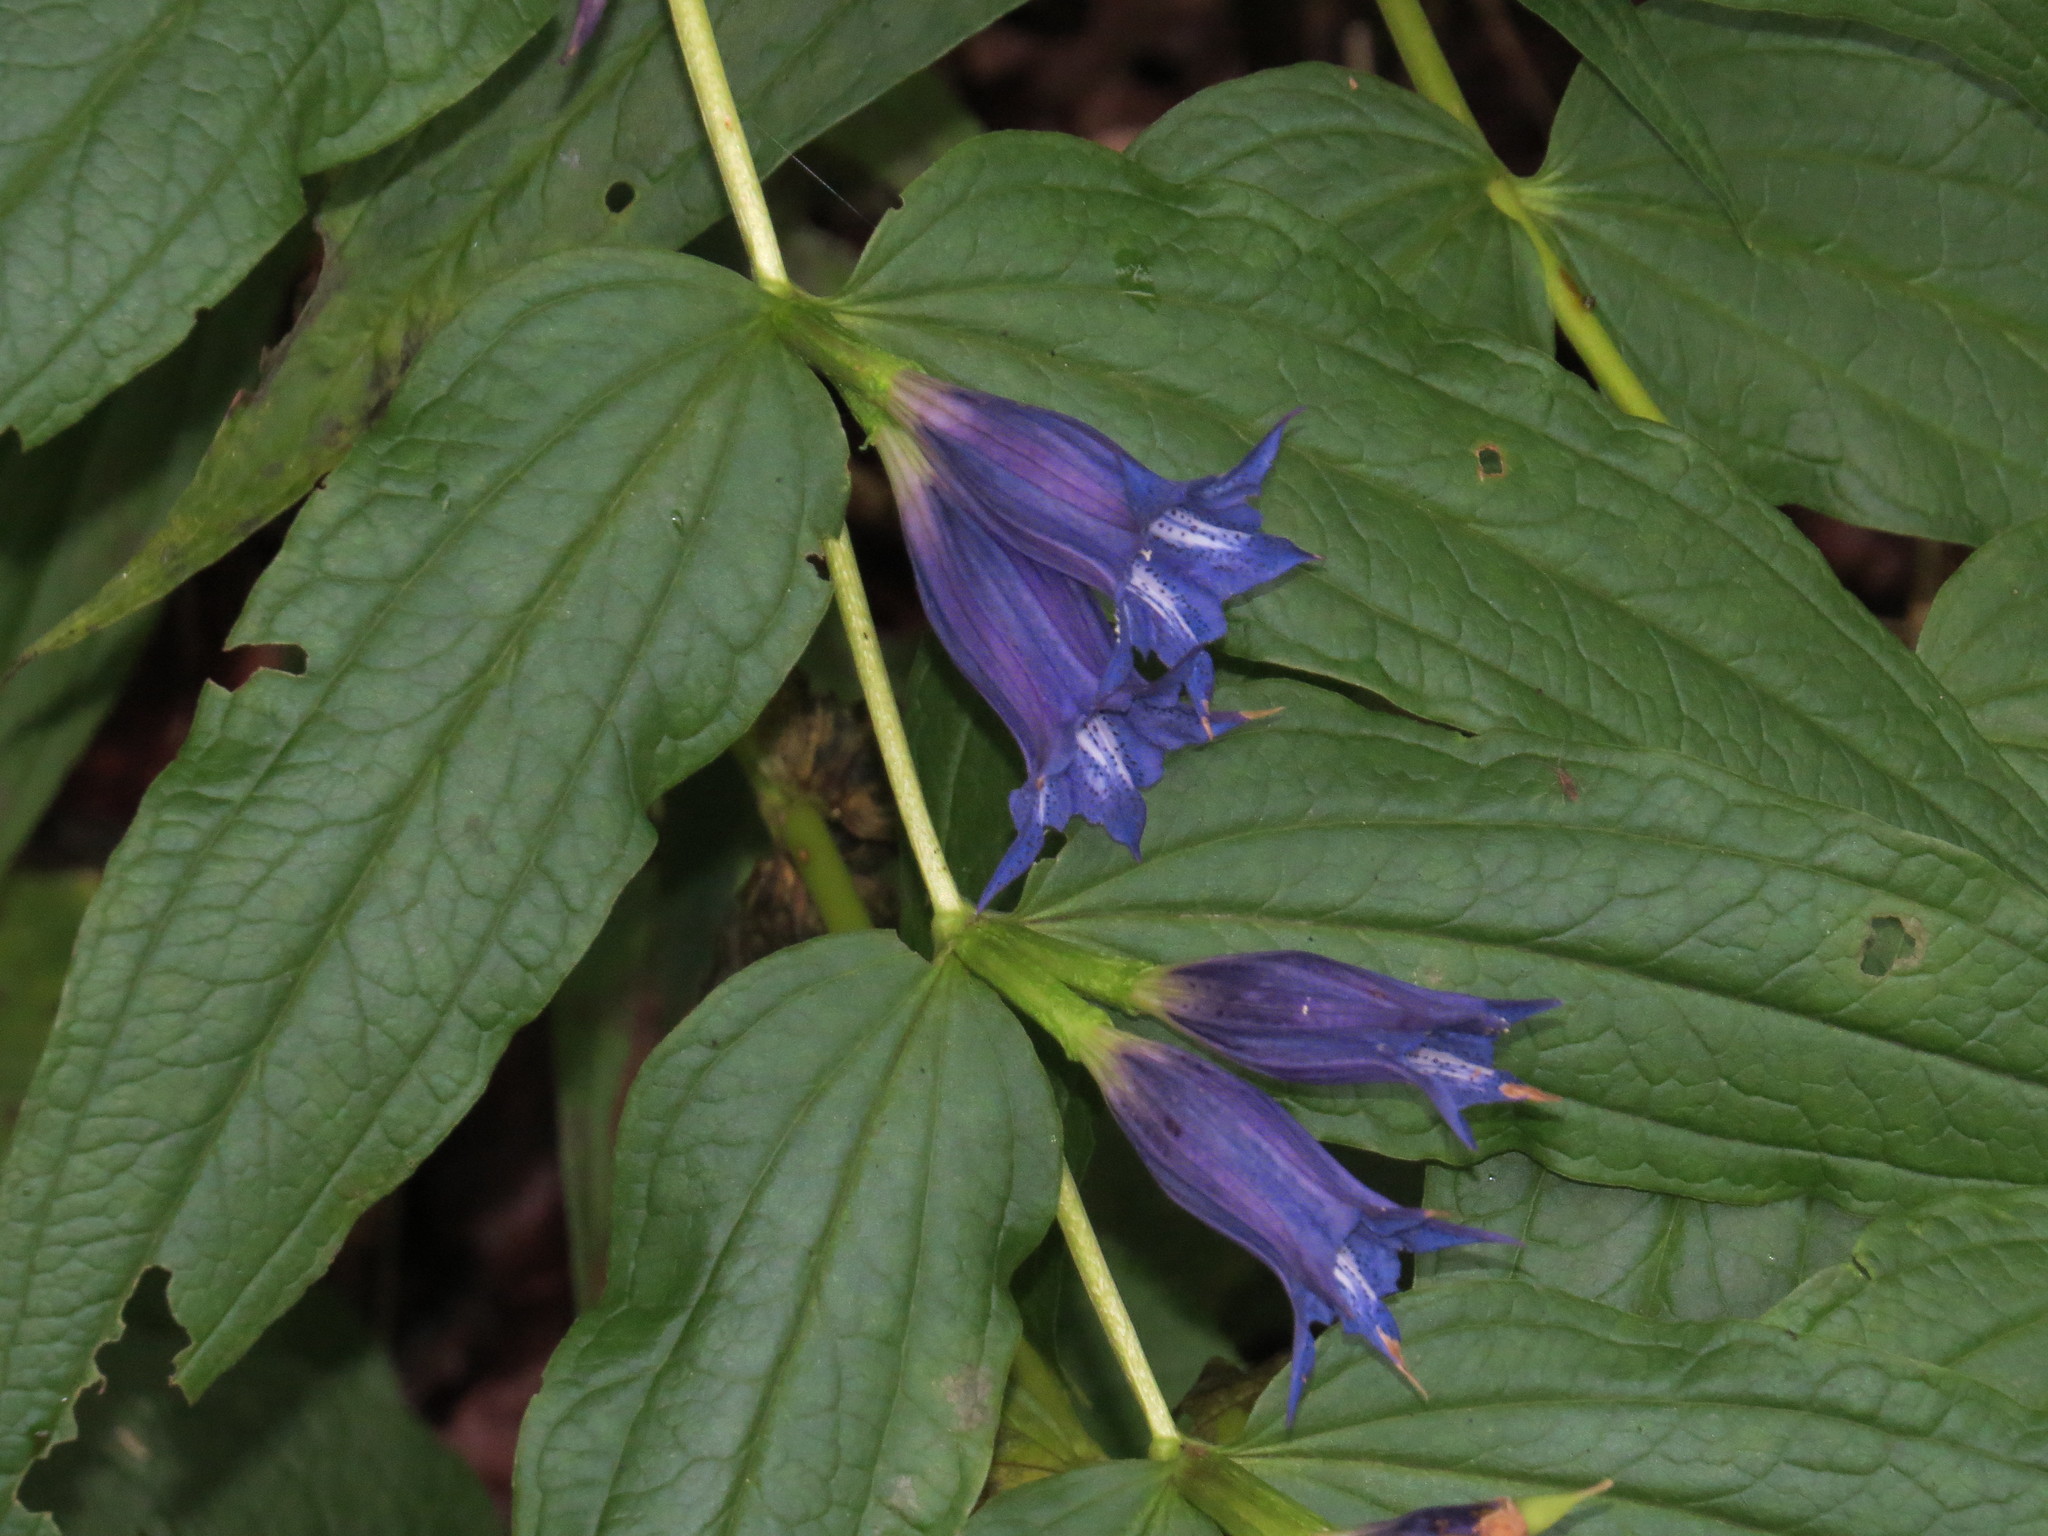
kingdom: Plantae
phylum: Tracheophyta
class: Magnoliopsida
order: Gentianales
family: Gentianaceae
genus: Gentiana
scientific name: Gentiana asclepiadea
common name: Willow gentian
